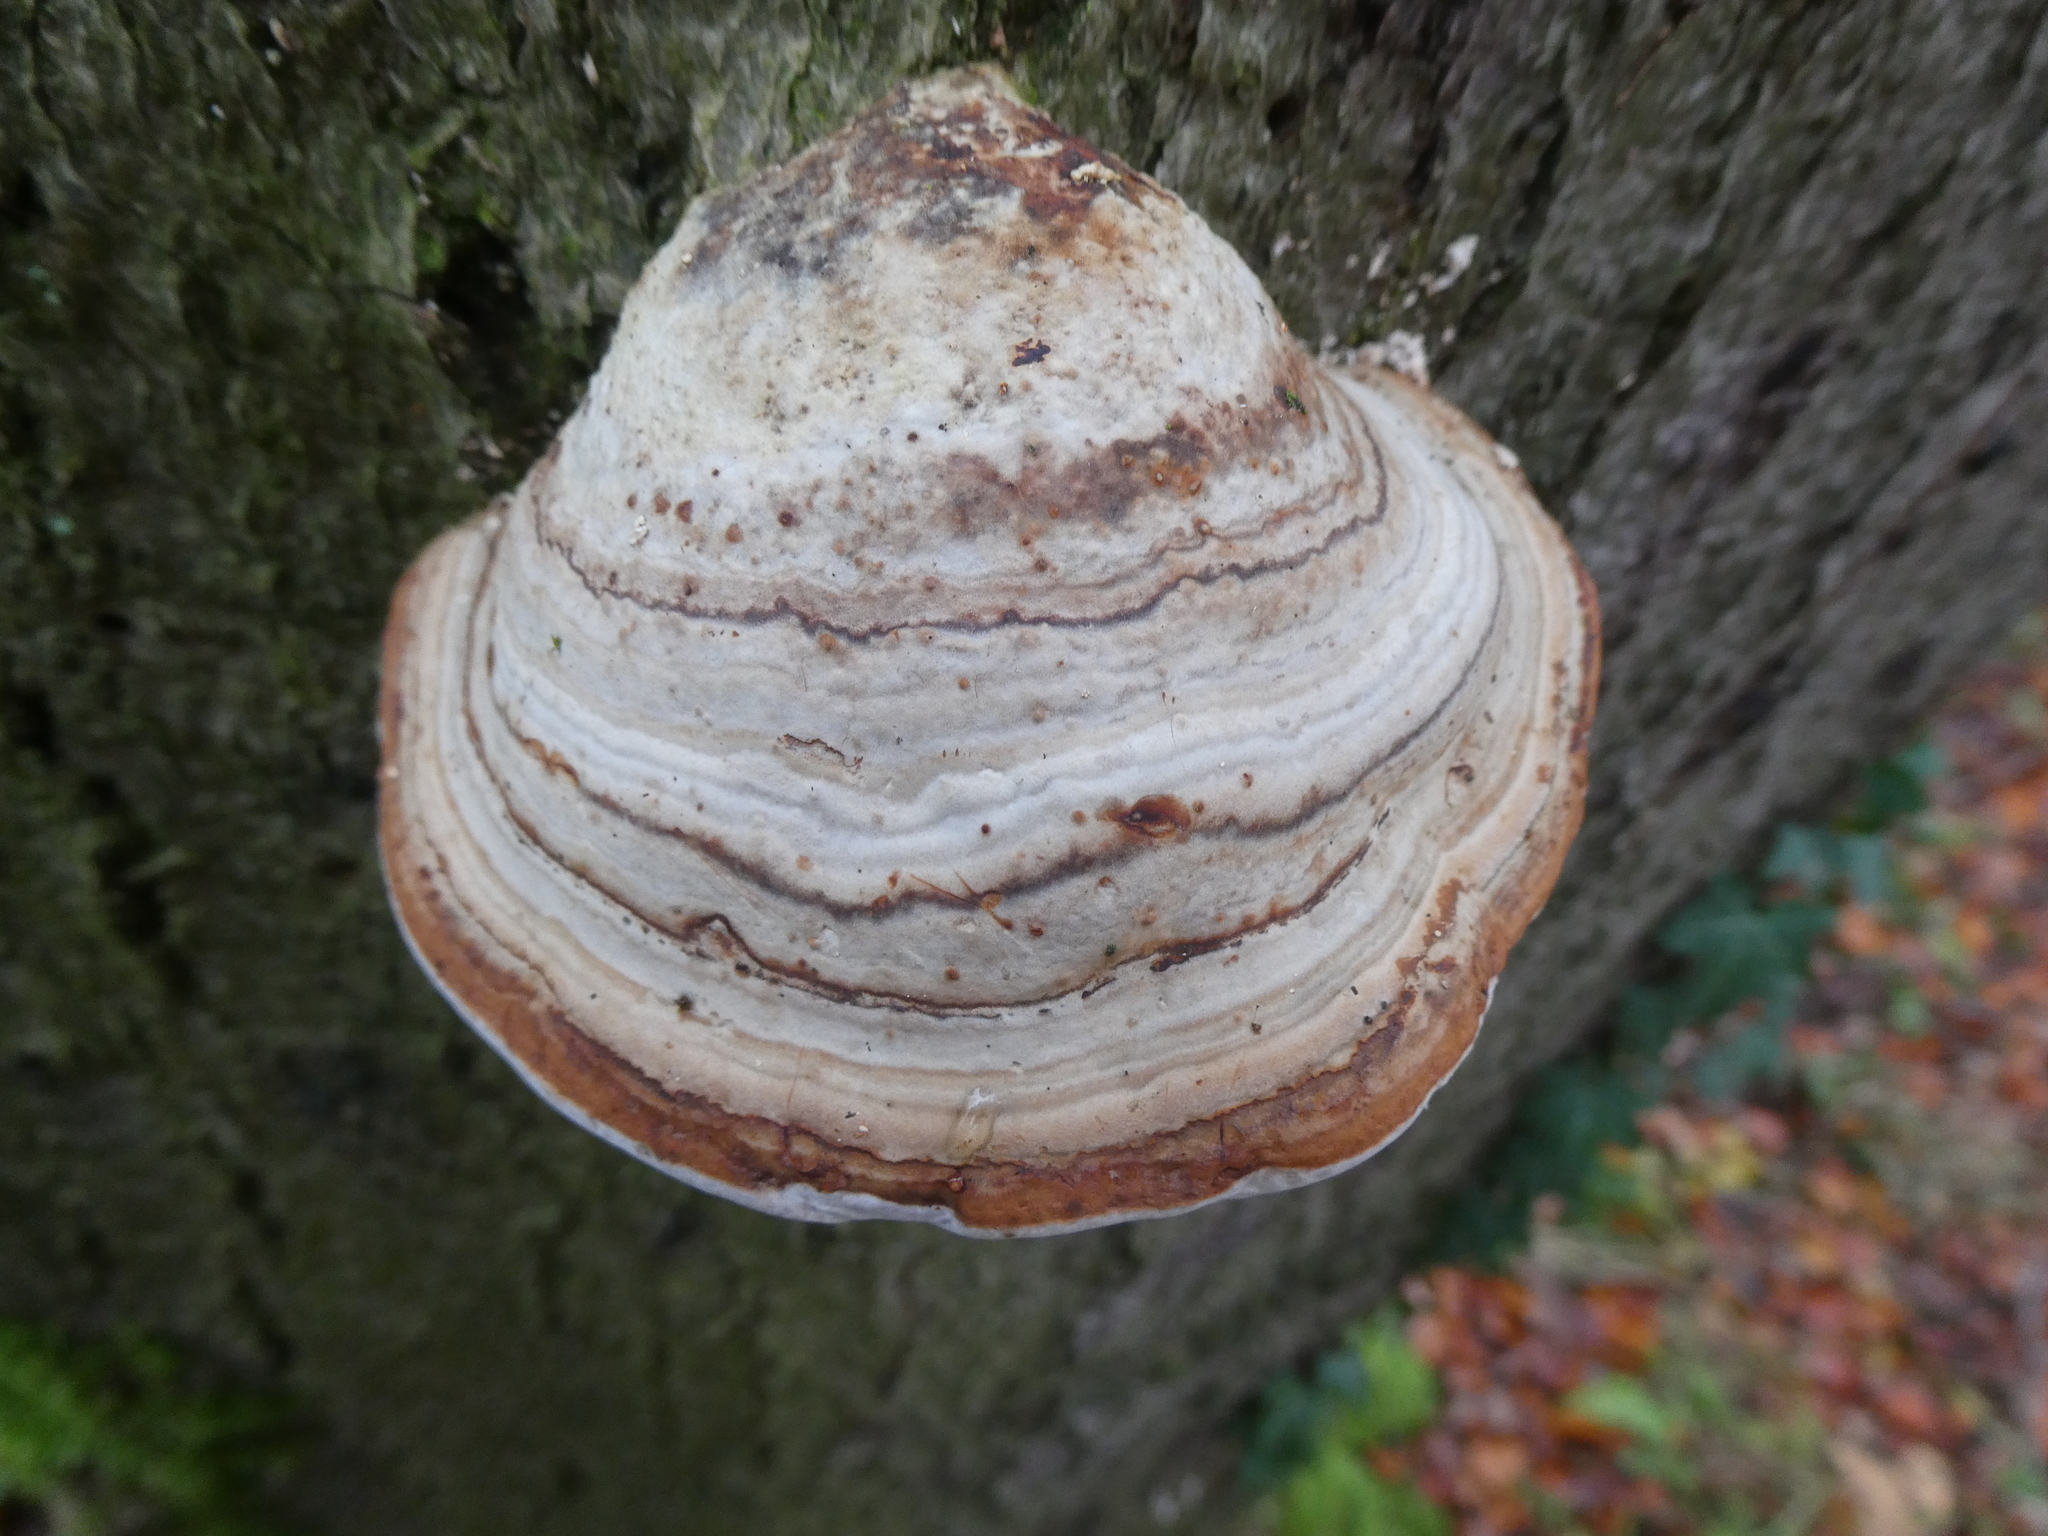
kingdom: Fungi
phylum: Basidiomycota
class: Agaricomycetes
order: Polyporales
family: Polyporaceae
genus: Fomes
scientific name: Fomes fomentarius
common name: Hoof fungus
